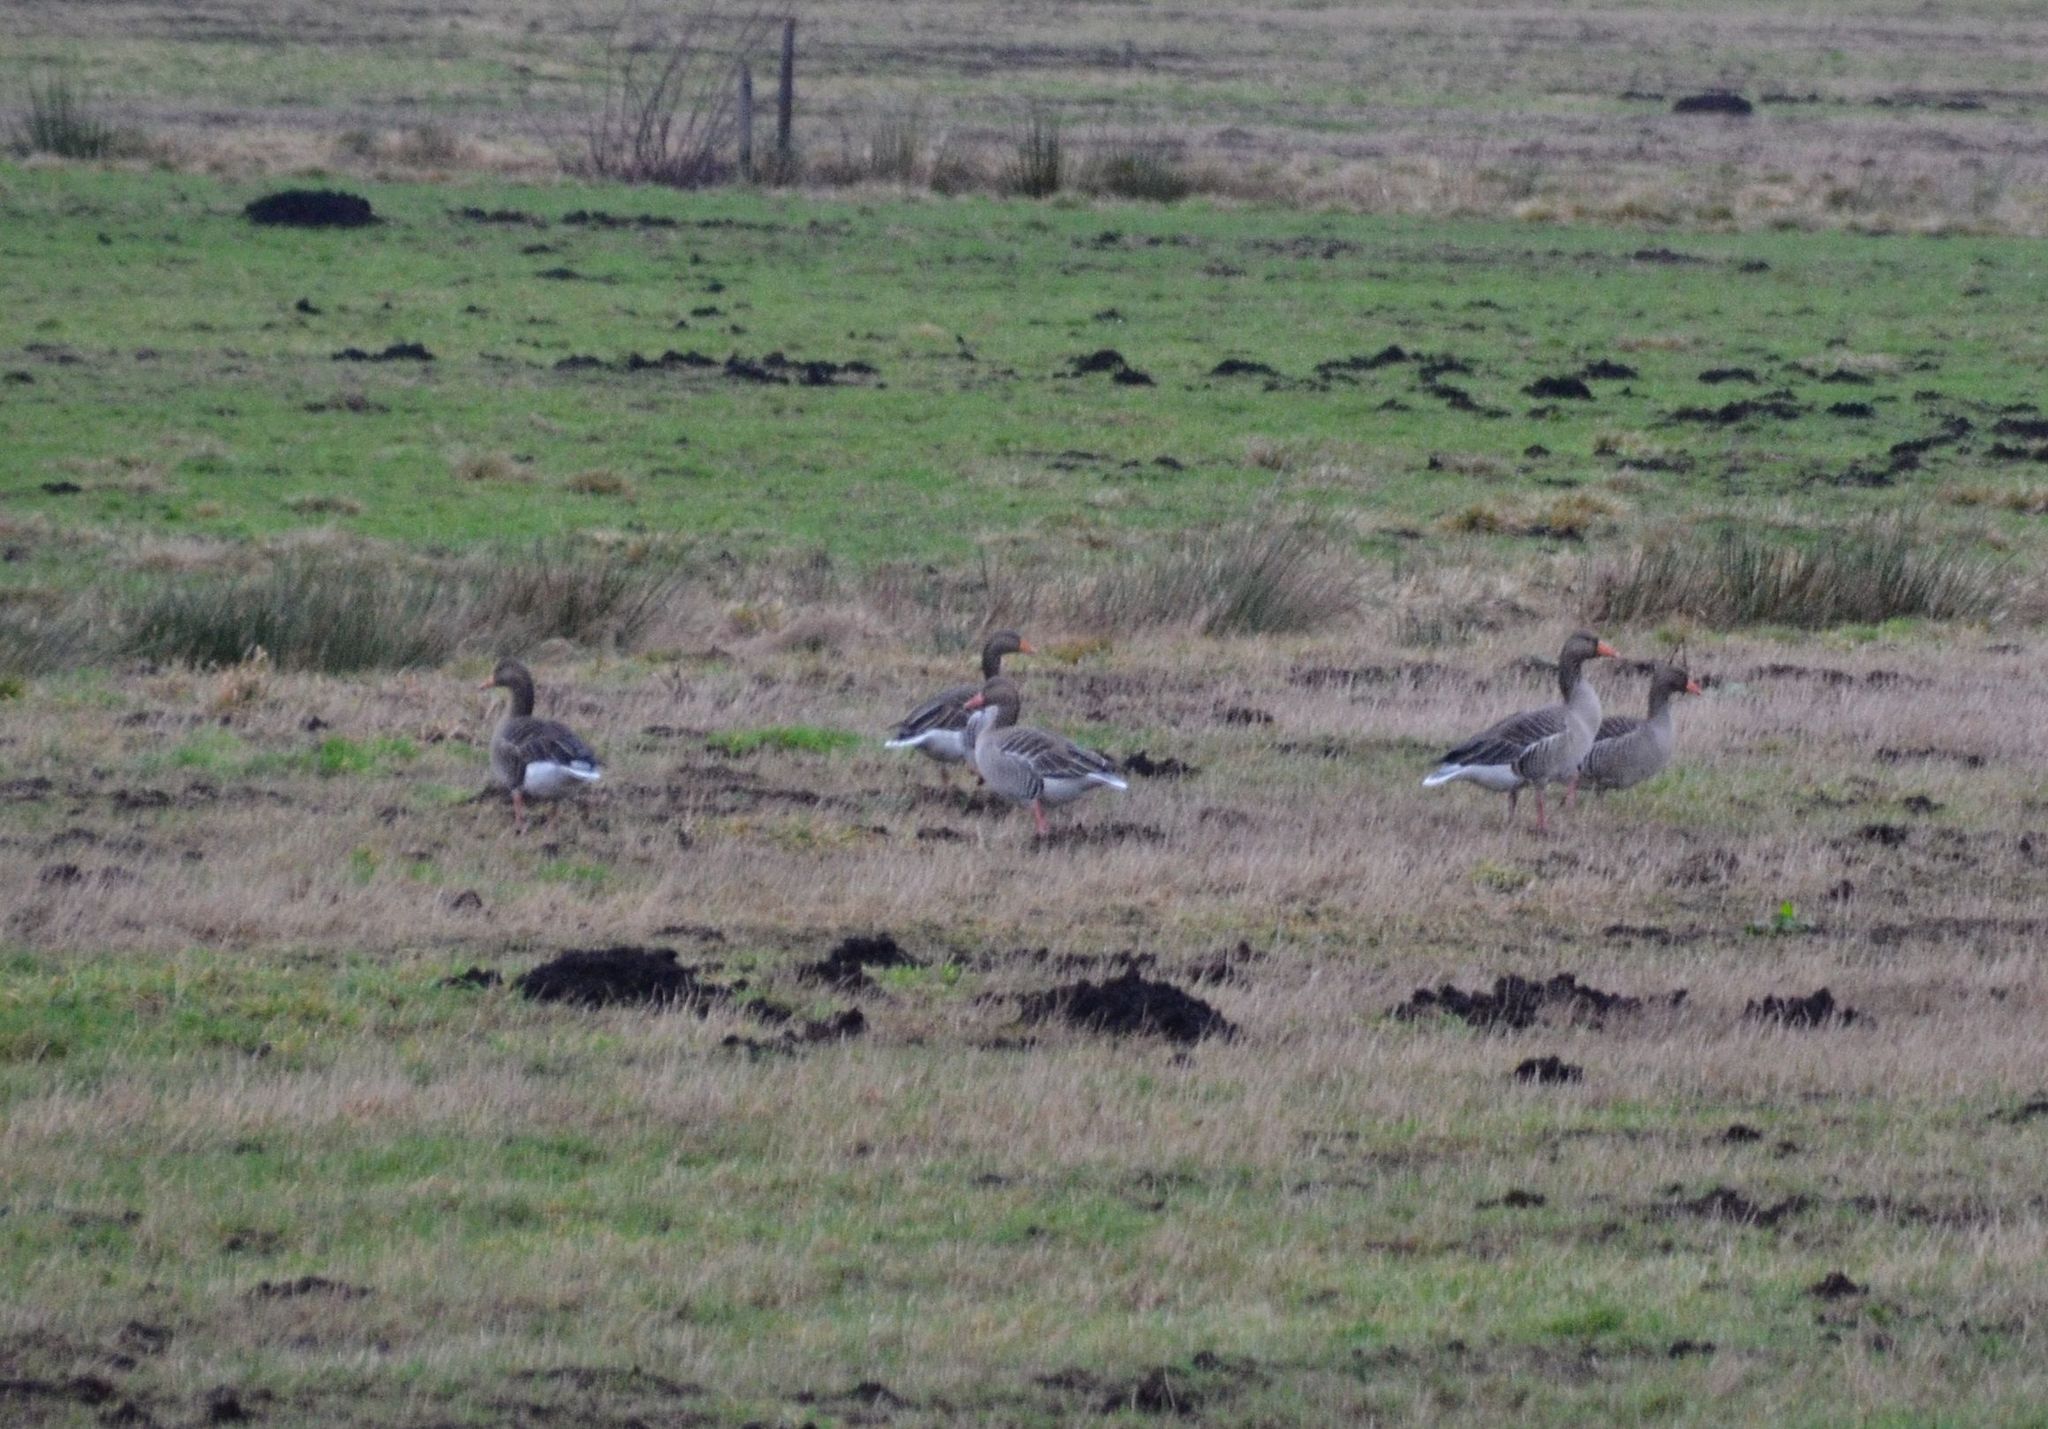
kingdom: Animalia
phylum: Chordata
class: Aves
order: Anseriformes
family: Anatidae
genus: Anser
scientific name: Anser anser
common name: Greylag goose
